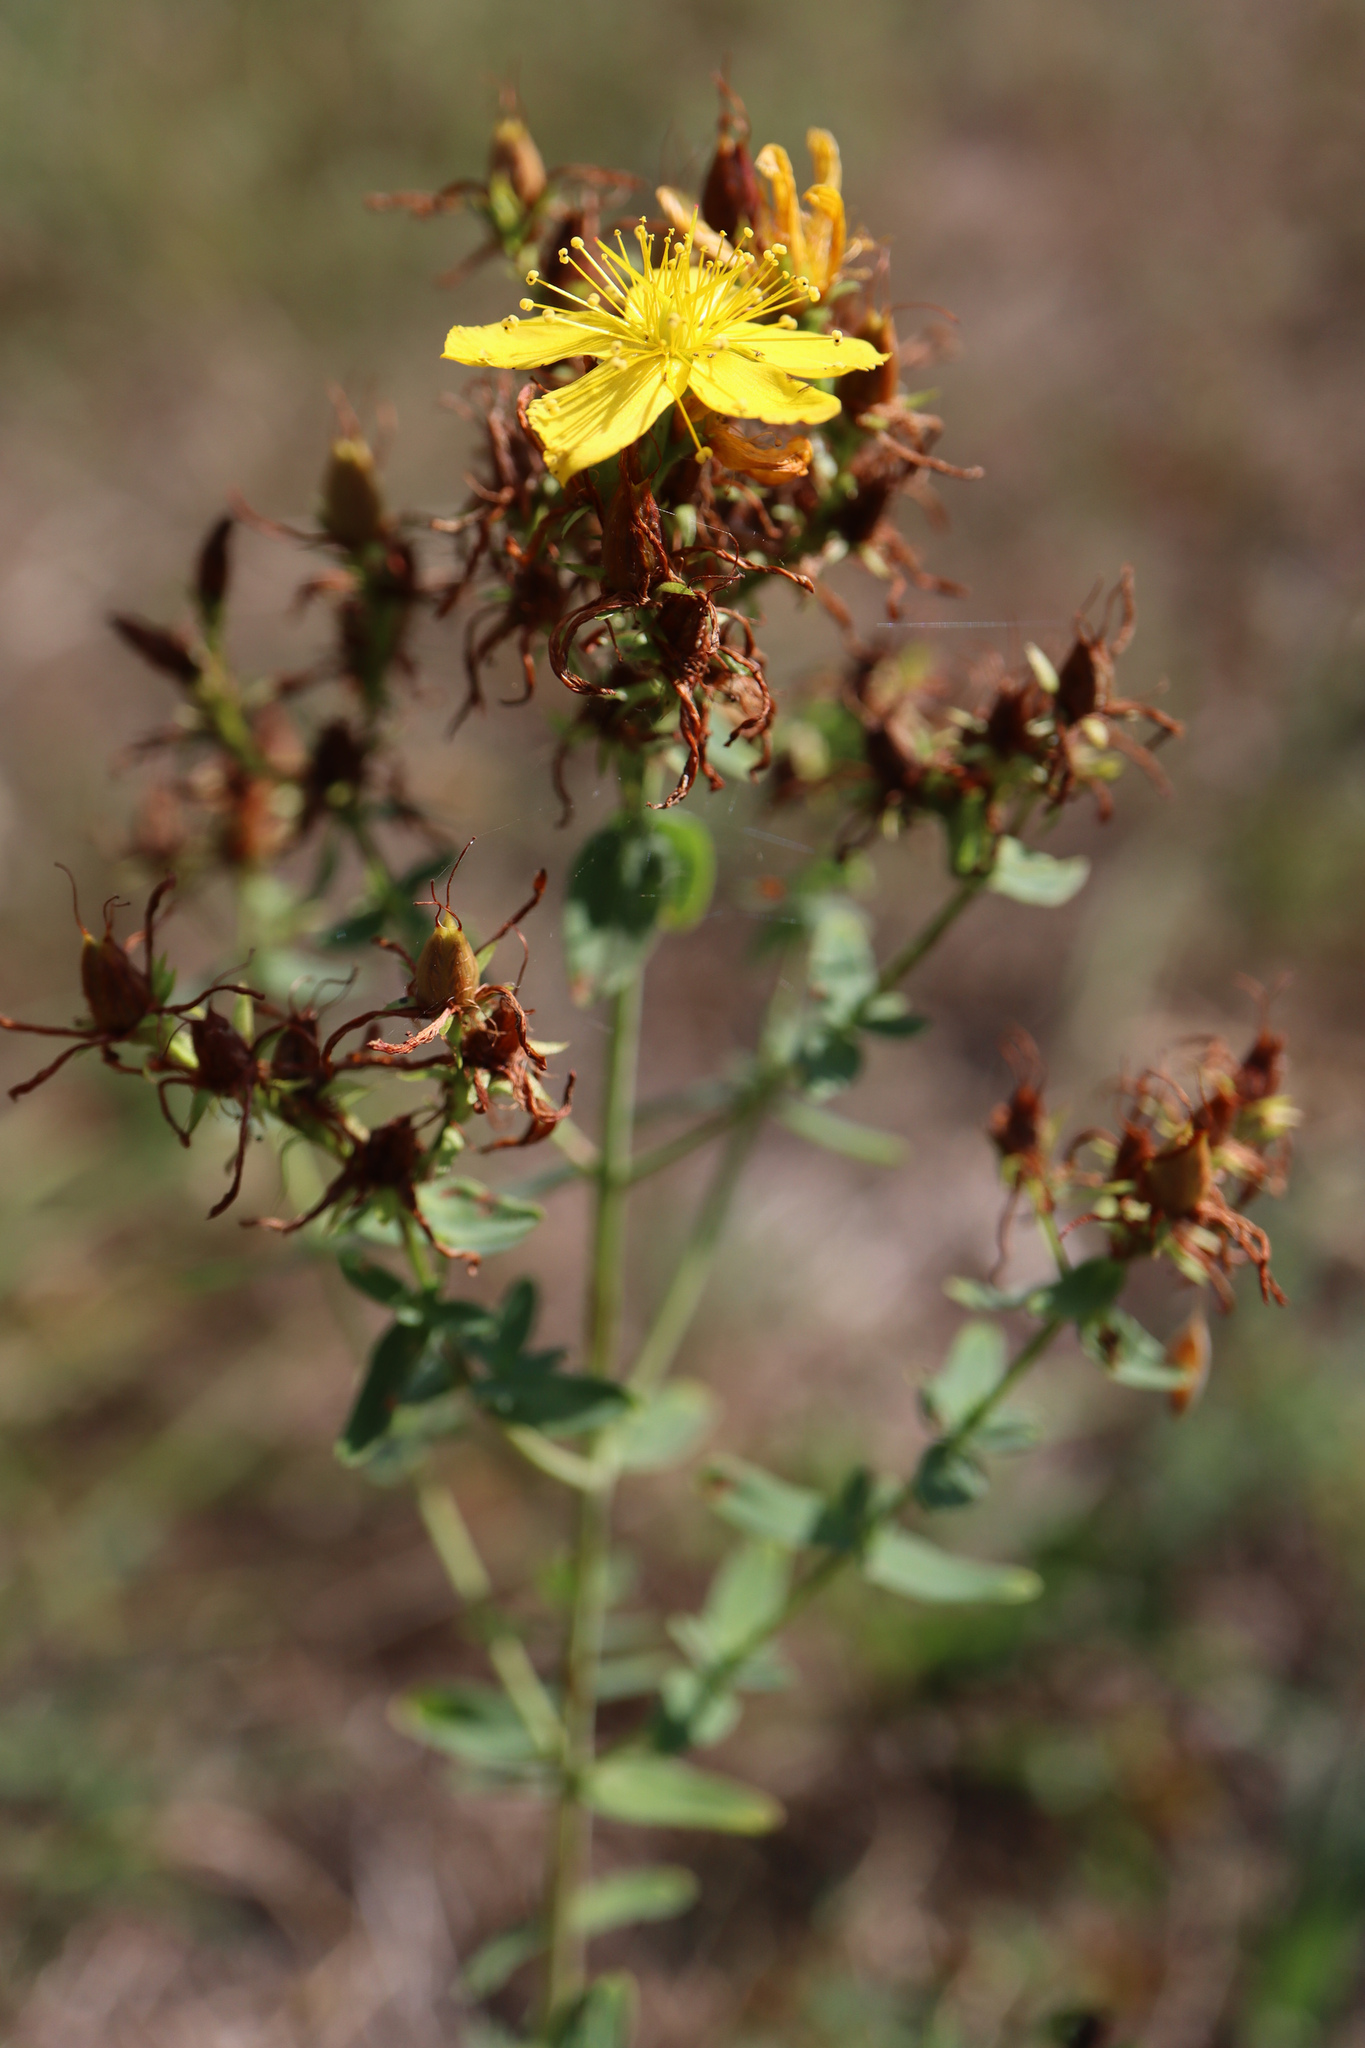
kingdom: Plantae
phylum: Tracheophyta
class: Magnoliopsida
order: Malpighiales
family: Hypericaceae
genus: Hypericum
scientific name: Hypericum perforatum
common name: Common st. johnswort
